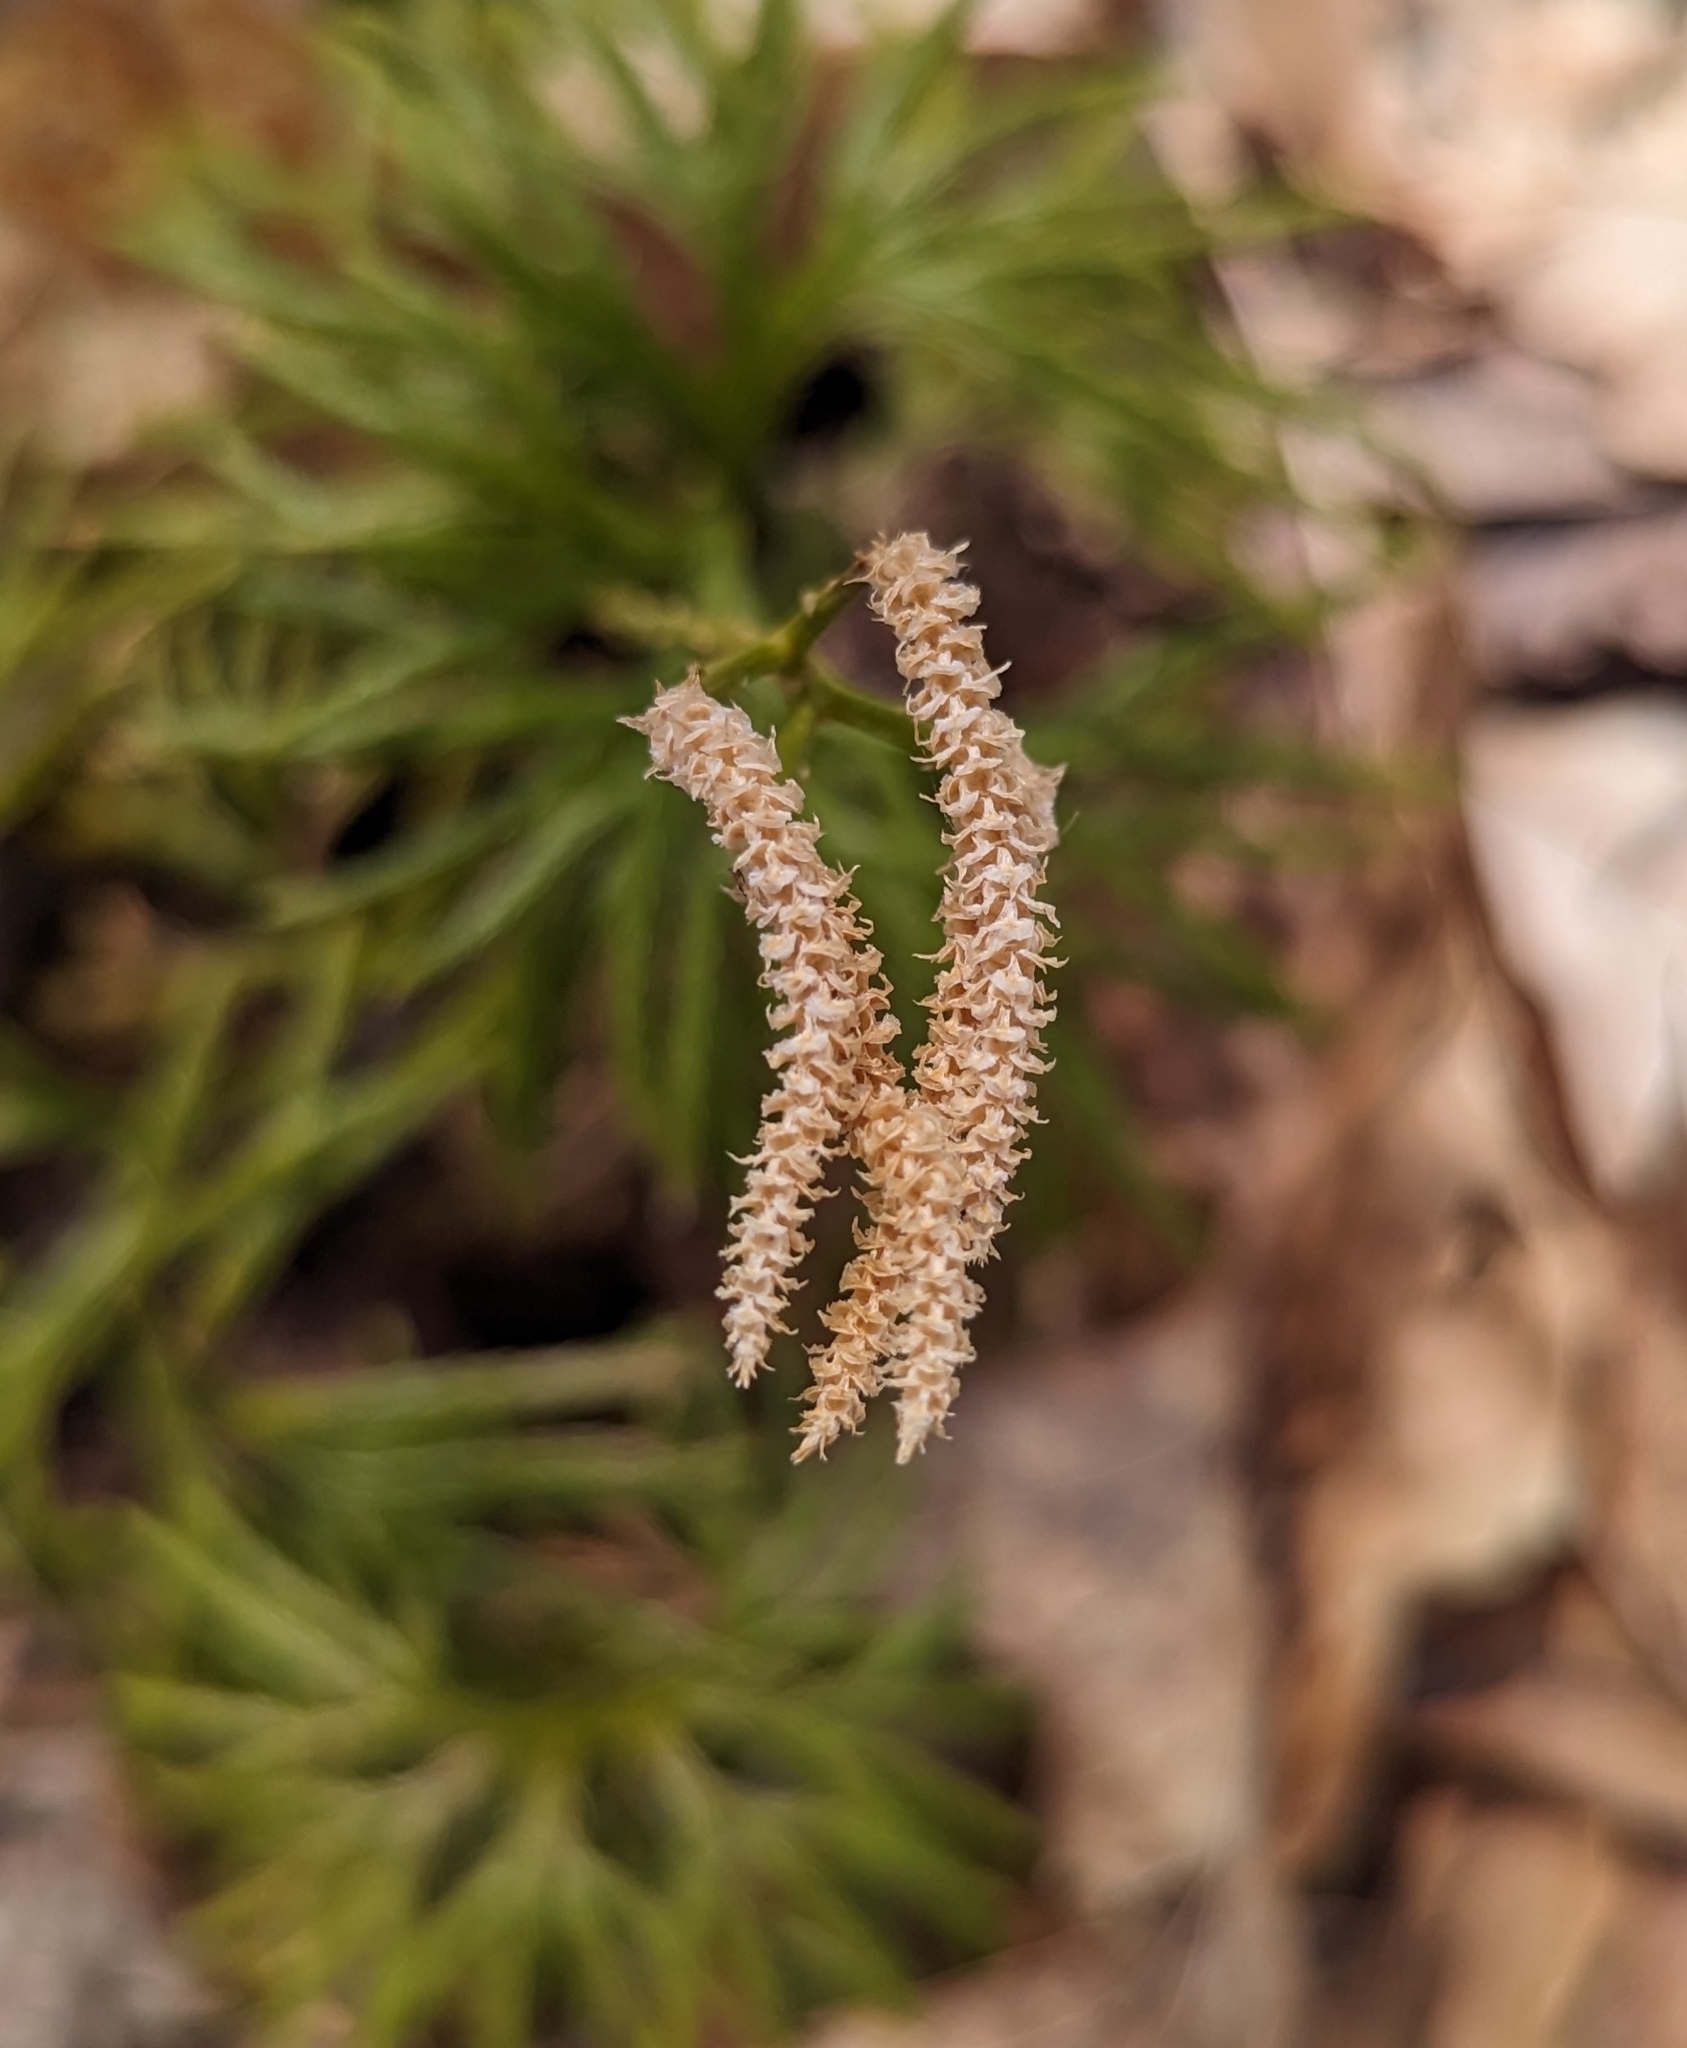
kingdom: Plantae
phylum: Tracheophyta
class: Lycopodiopsida
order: Lycopodiales
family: Lycopodiaceae
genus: Diphasiastrum
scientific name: Diphasiastrum digitatum
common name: Southern running-pine
